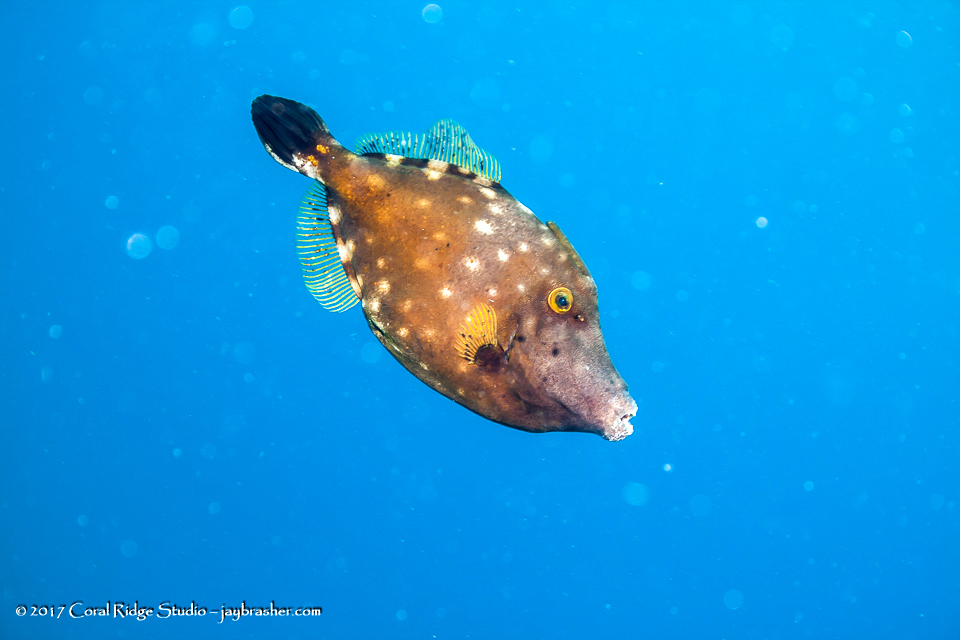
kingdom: Animalia
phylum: Chordata
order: Tetraodontiformes
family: Monacanthidae
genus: Cantherhines
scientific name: Cantherhines macrocerus
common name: Whitespotted filefish
